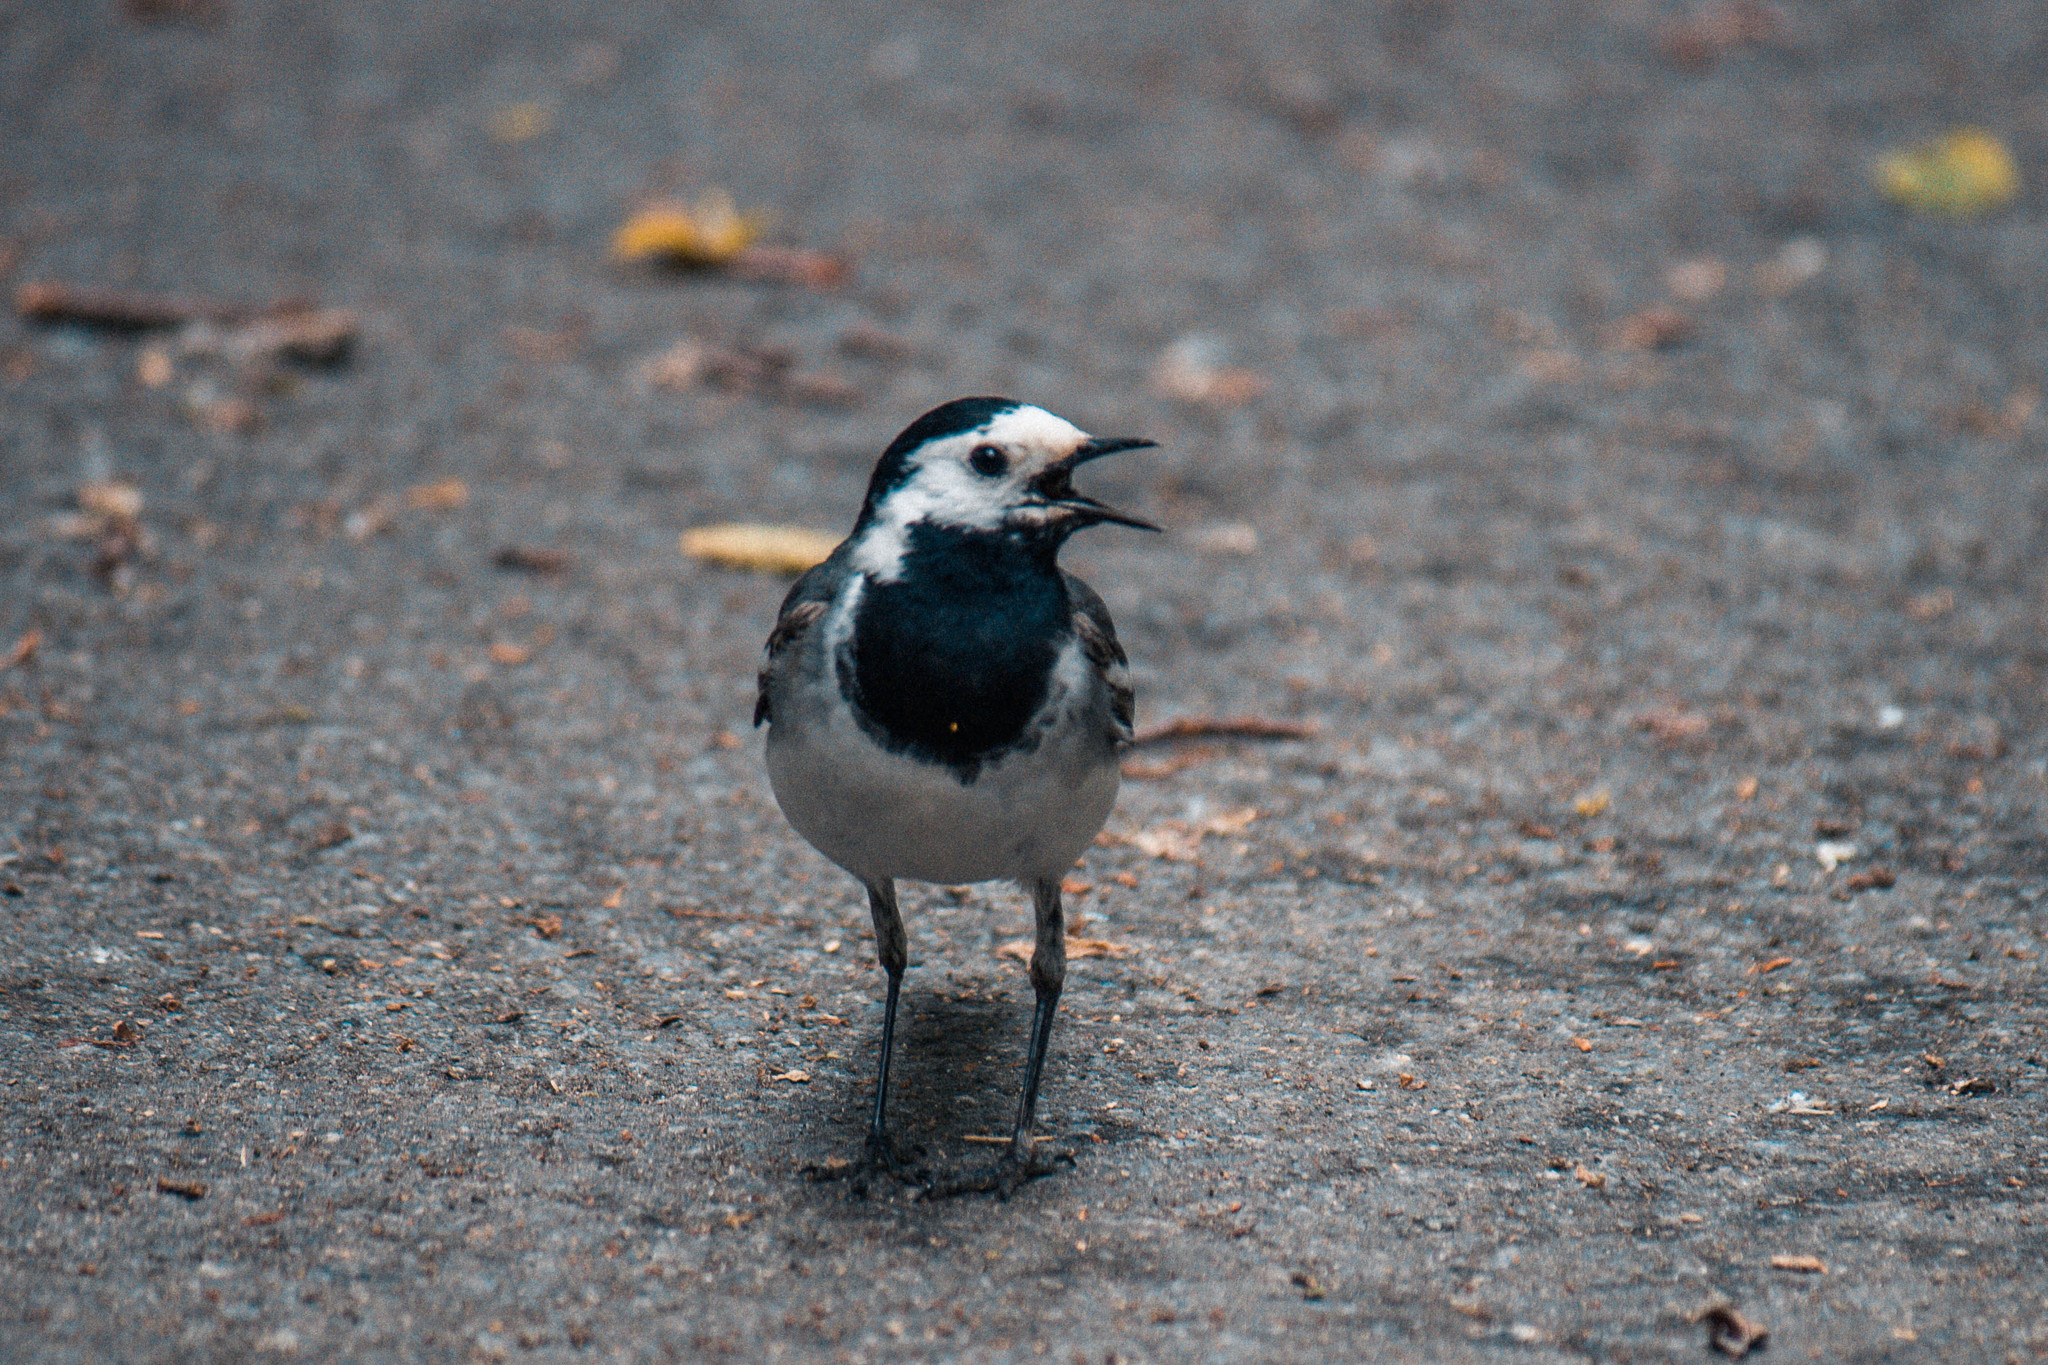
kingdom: Animalia
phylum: Chordata
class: Aves
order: Passeriformes
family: Motacillidae
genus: Motacilla
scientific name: Motacilla alba
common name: White wagtail
